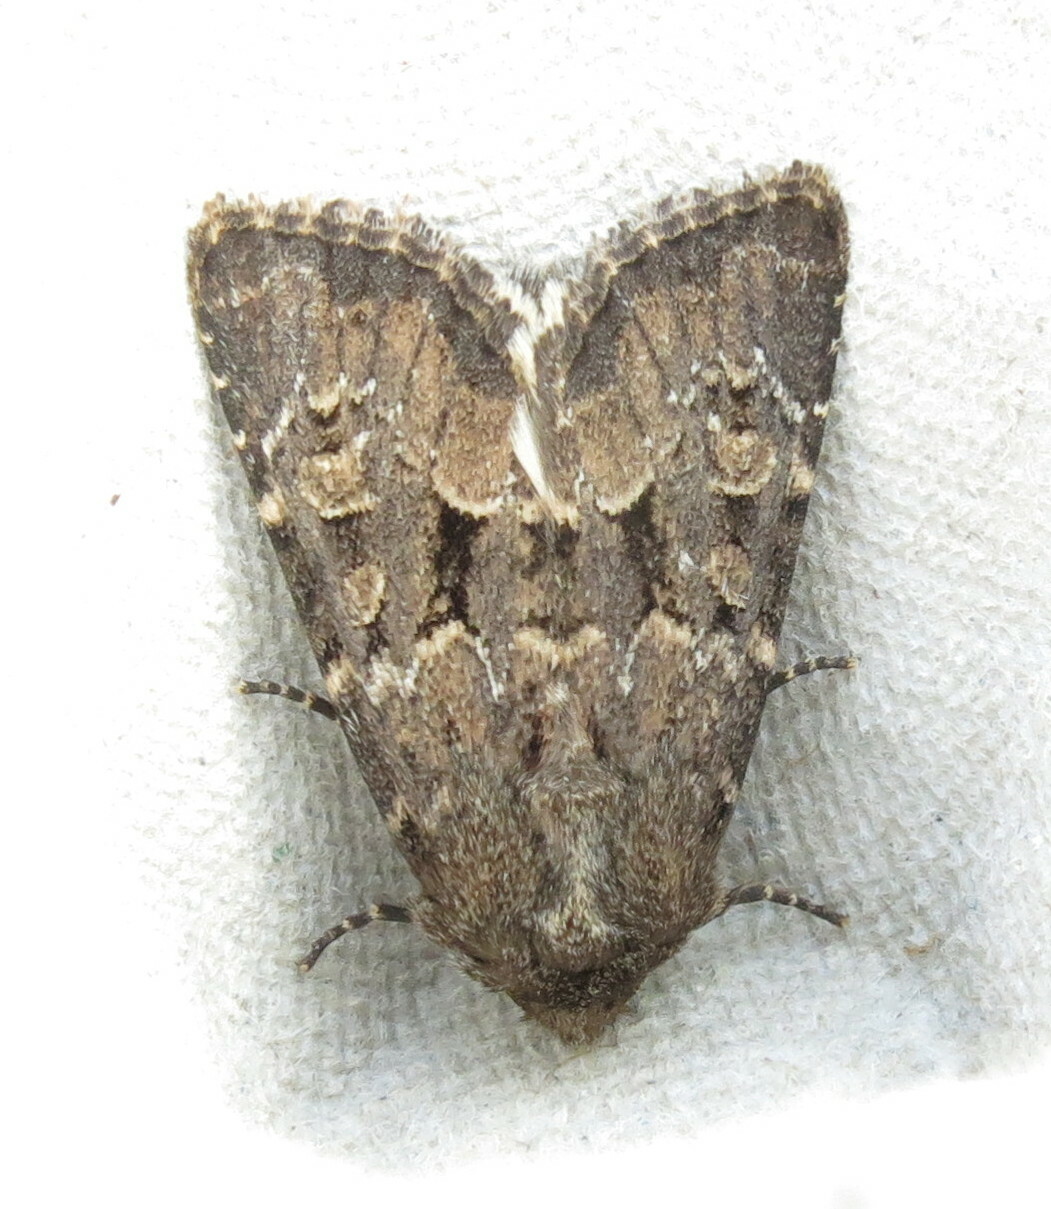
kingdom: Animalia
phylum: Arthropoda
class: Insecta
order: Lepidoptera
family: Noctuidae
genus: Luperina
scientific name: Luperina testacea
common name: Flounced rustic
